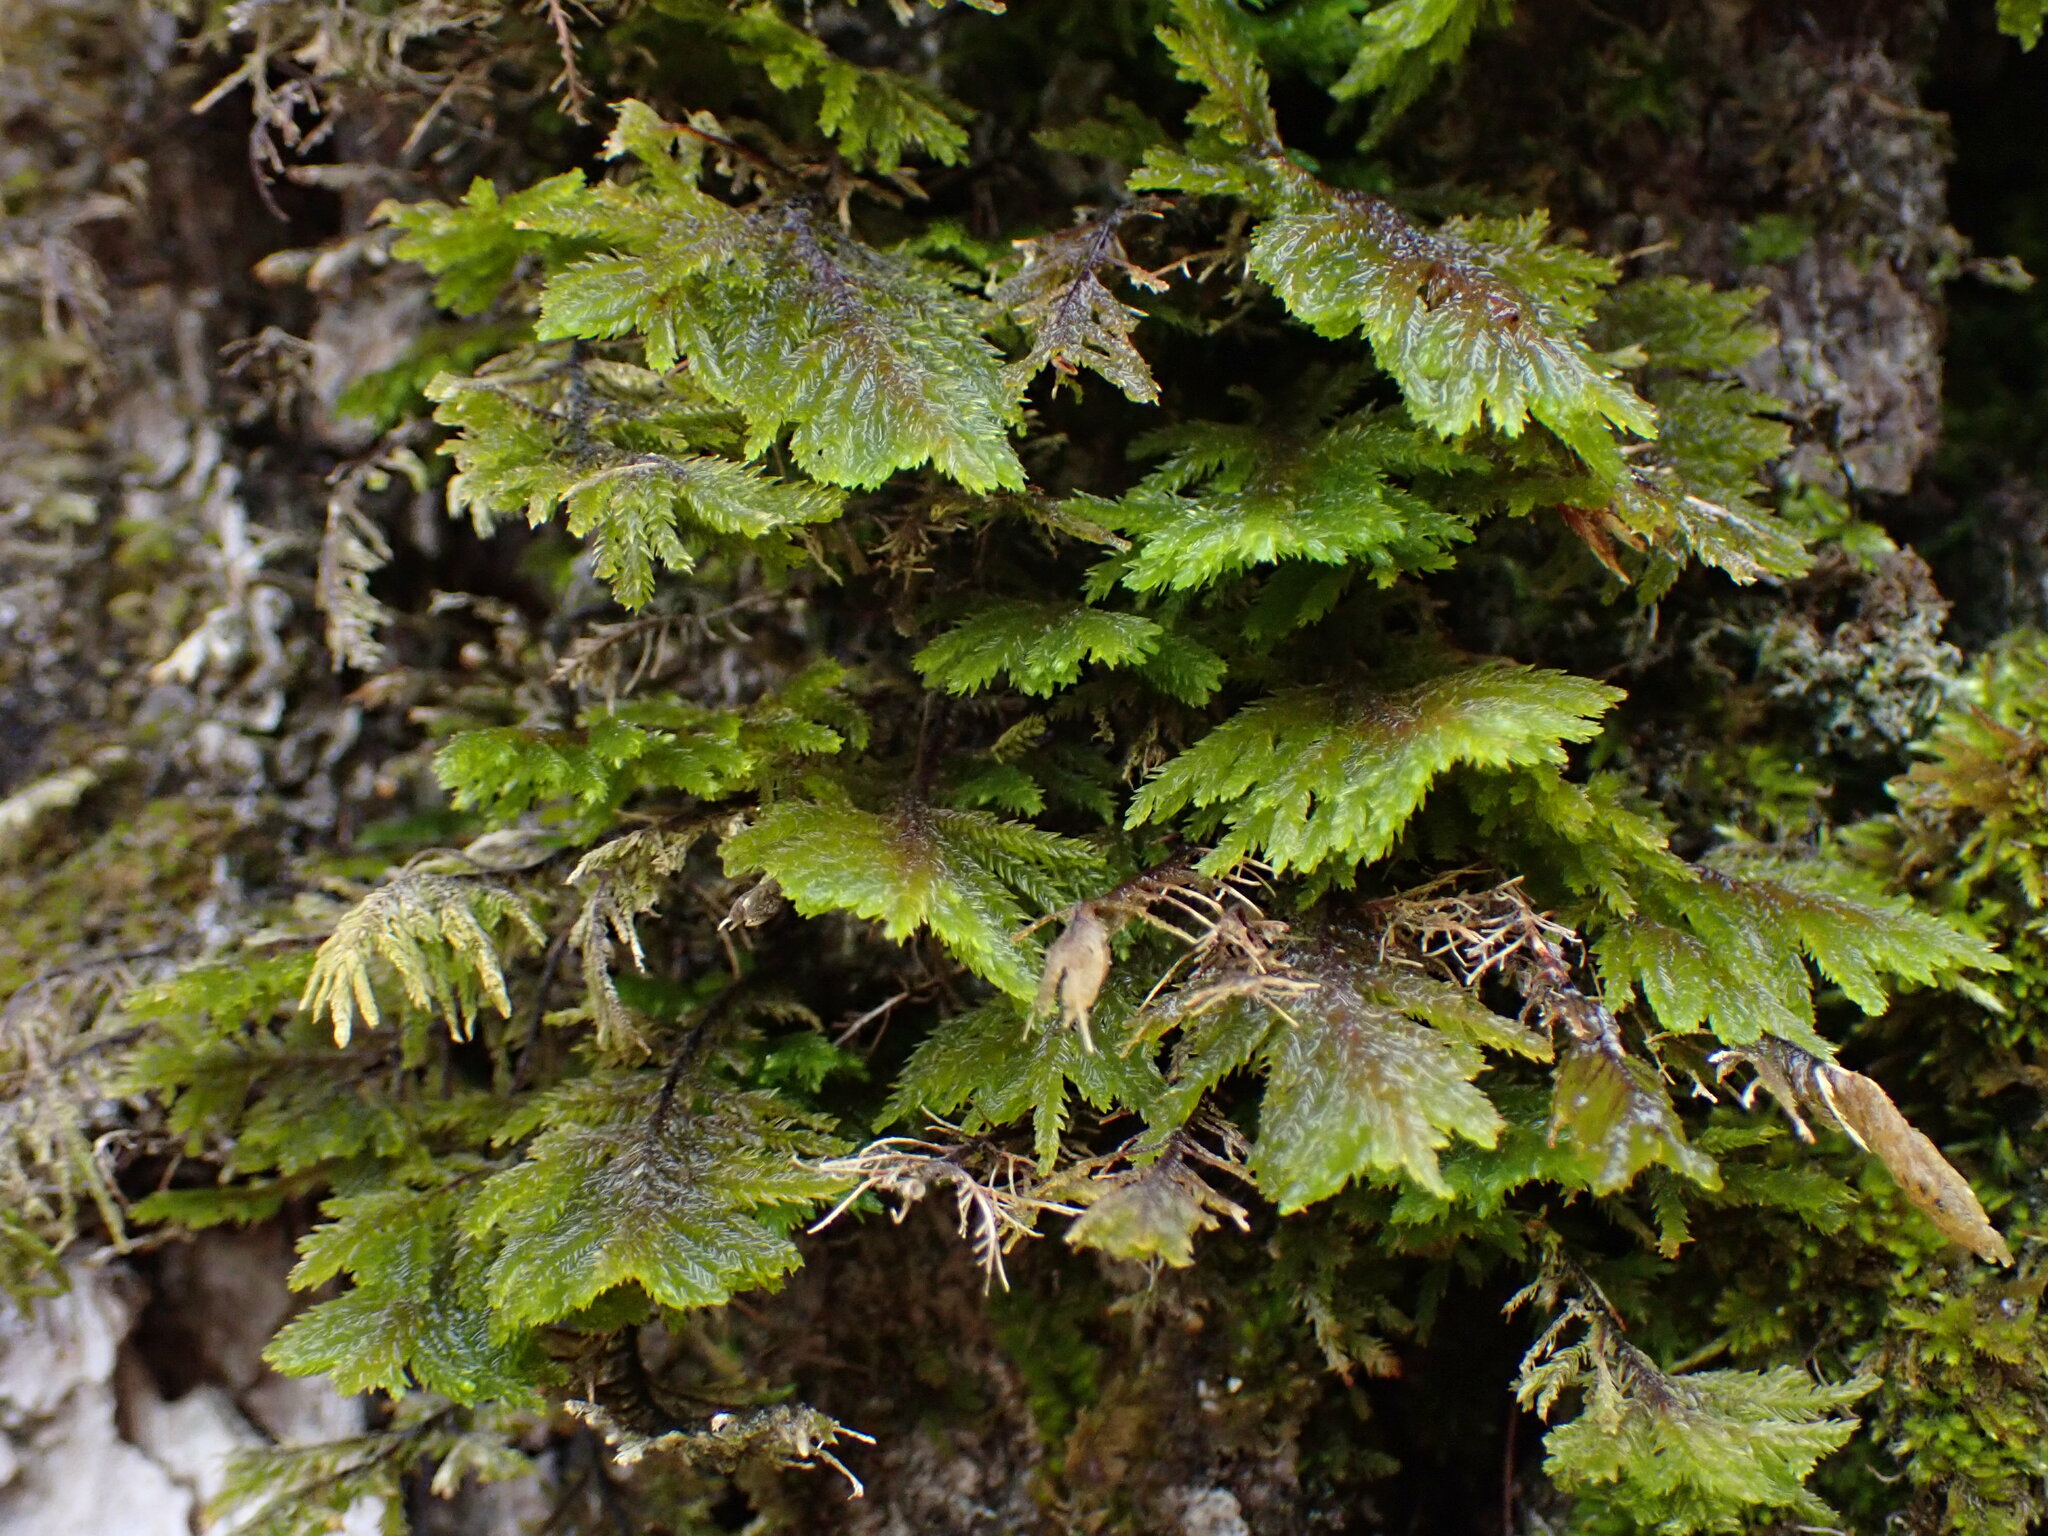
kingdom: Plantae
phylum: Bryophyta
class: Bryopsida
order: Hypnales
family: Cryphaeaceae
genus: Dendroalsia
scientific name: Dendroalsia abietina
